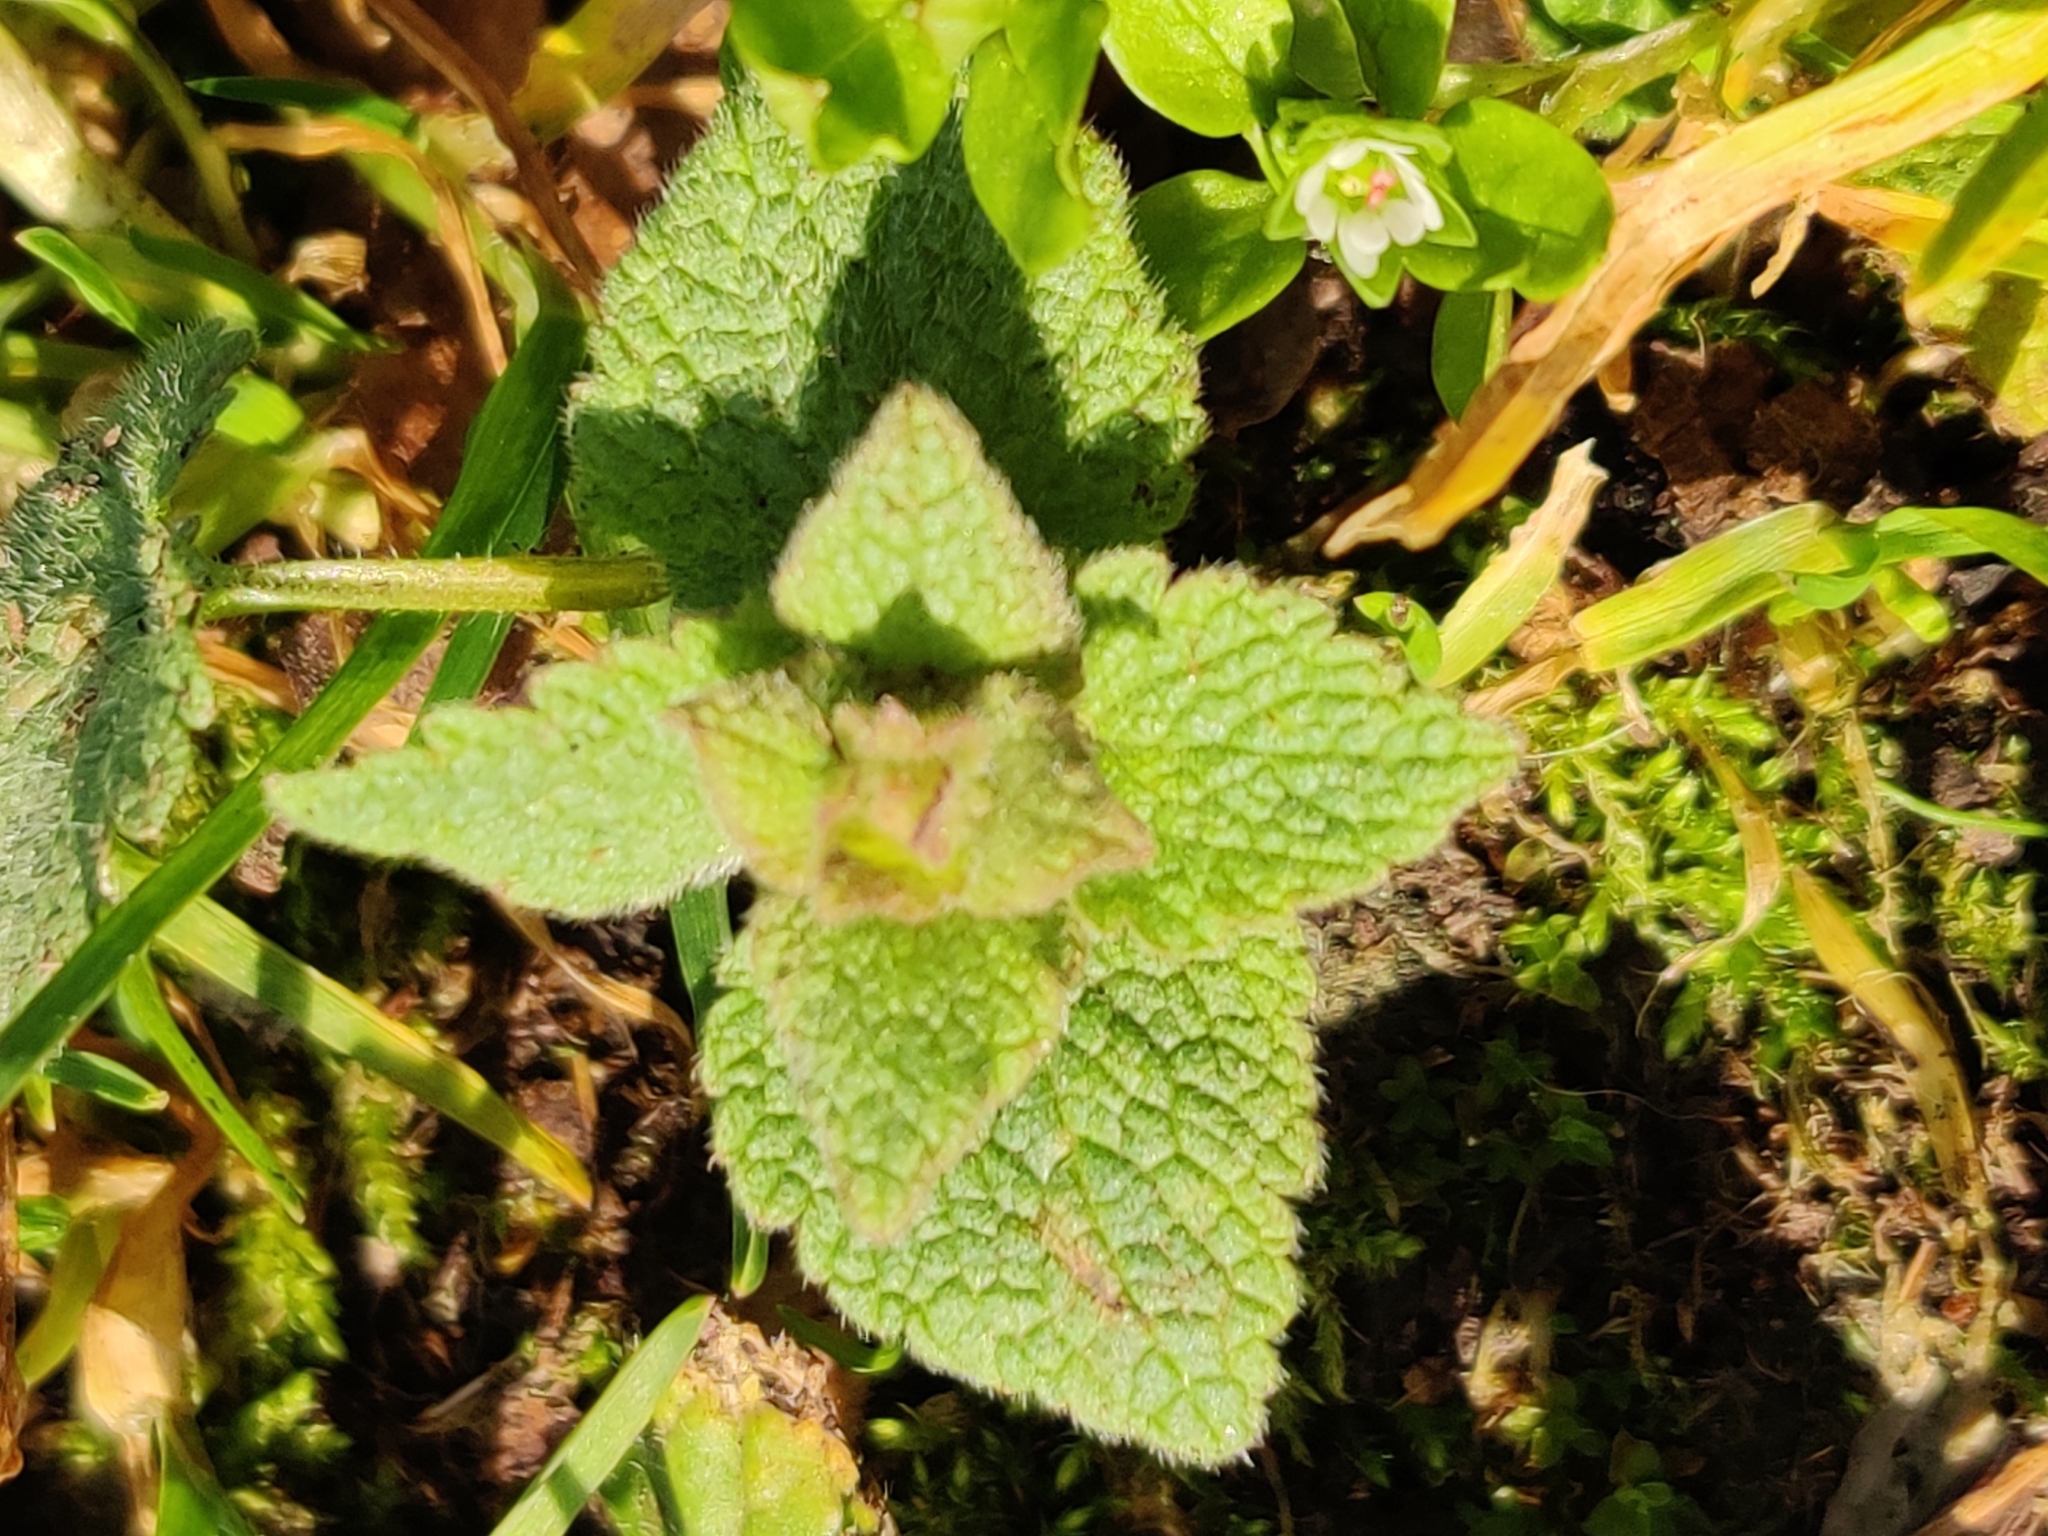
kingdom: Plantae
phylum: Tracheophyta
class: Magnoliopsida
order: Lamiales
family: Lamiaceae
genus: Lamium
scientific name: Lamium purpureum
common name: Red dead-nettle
